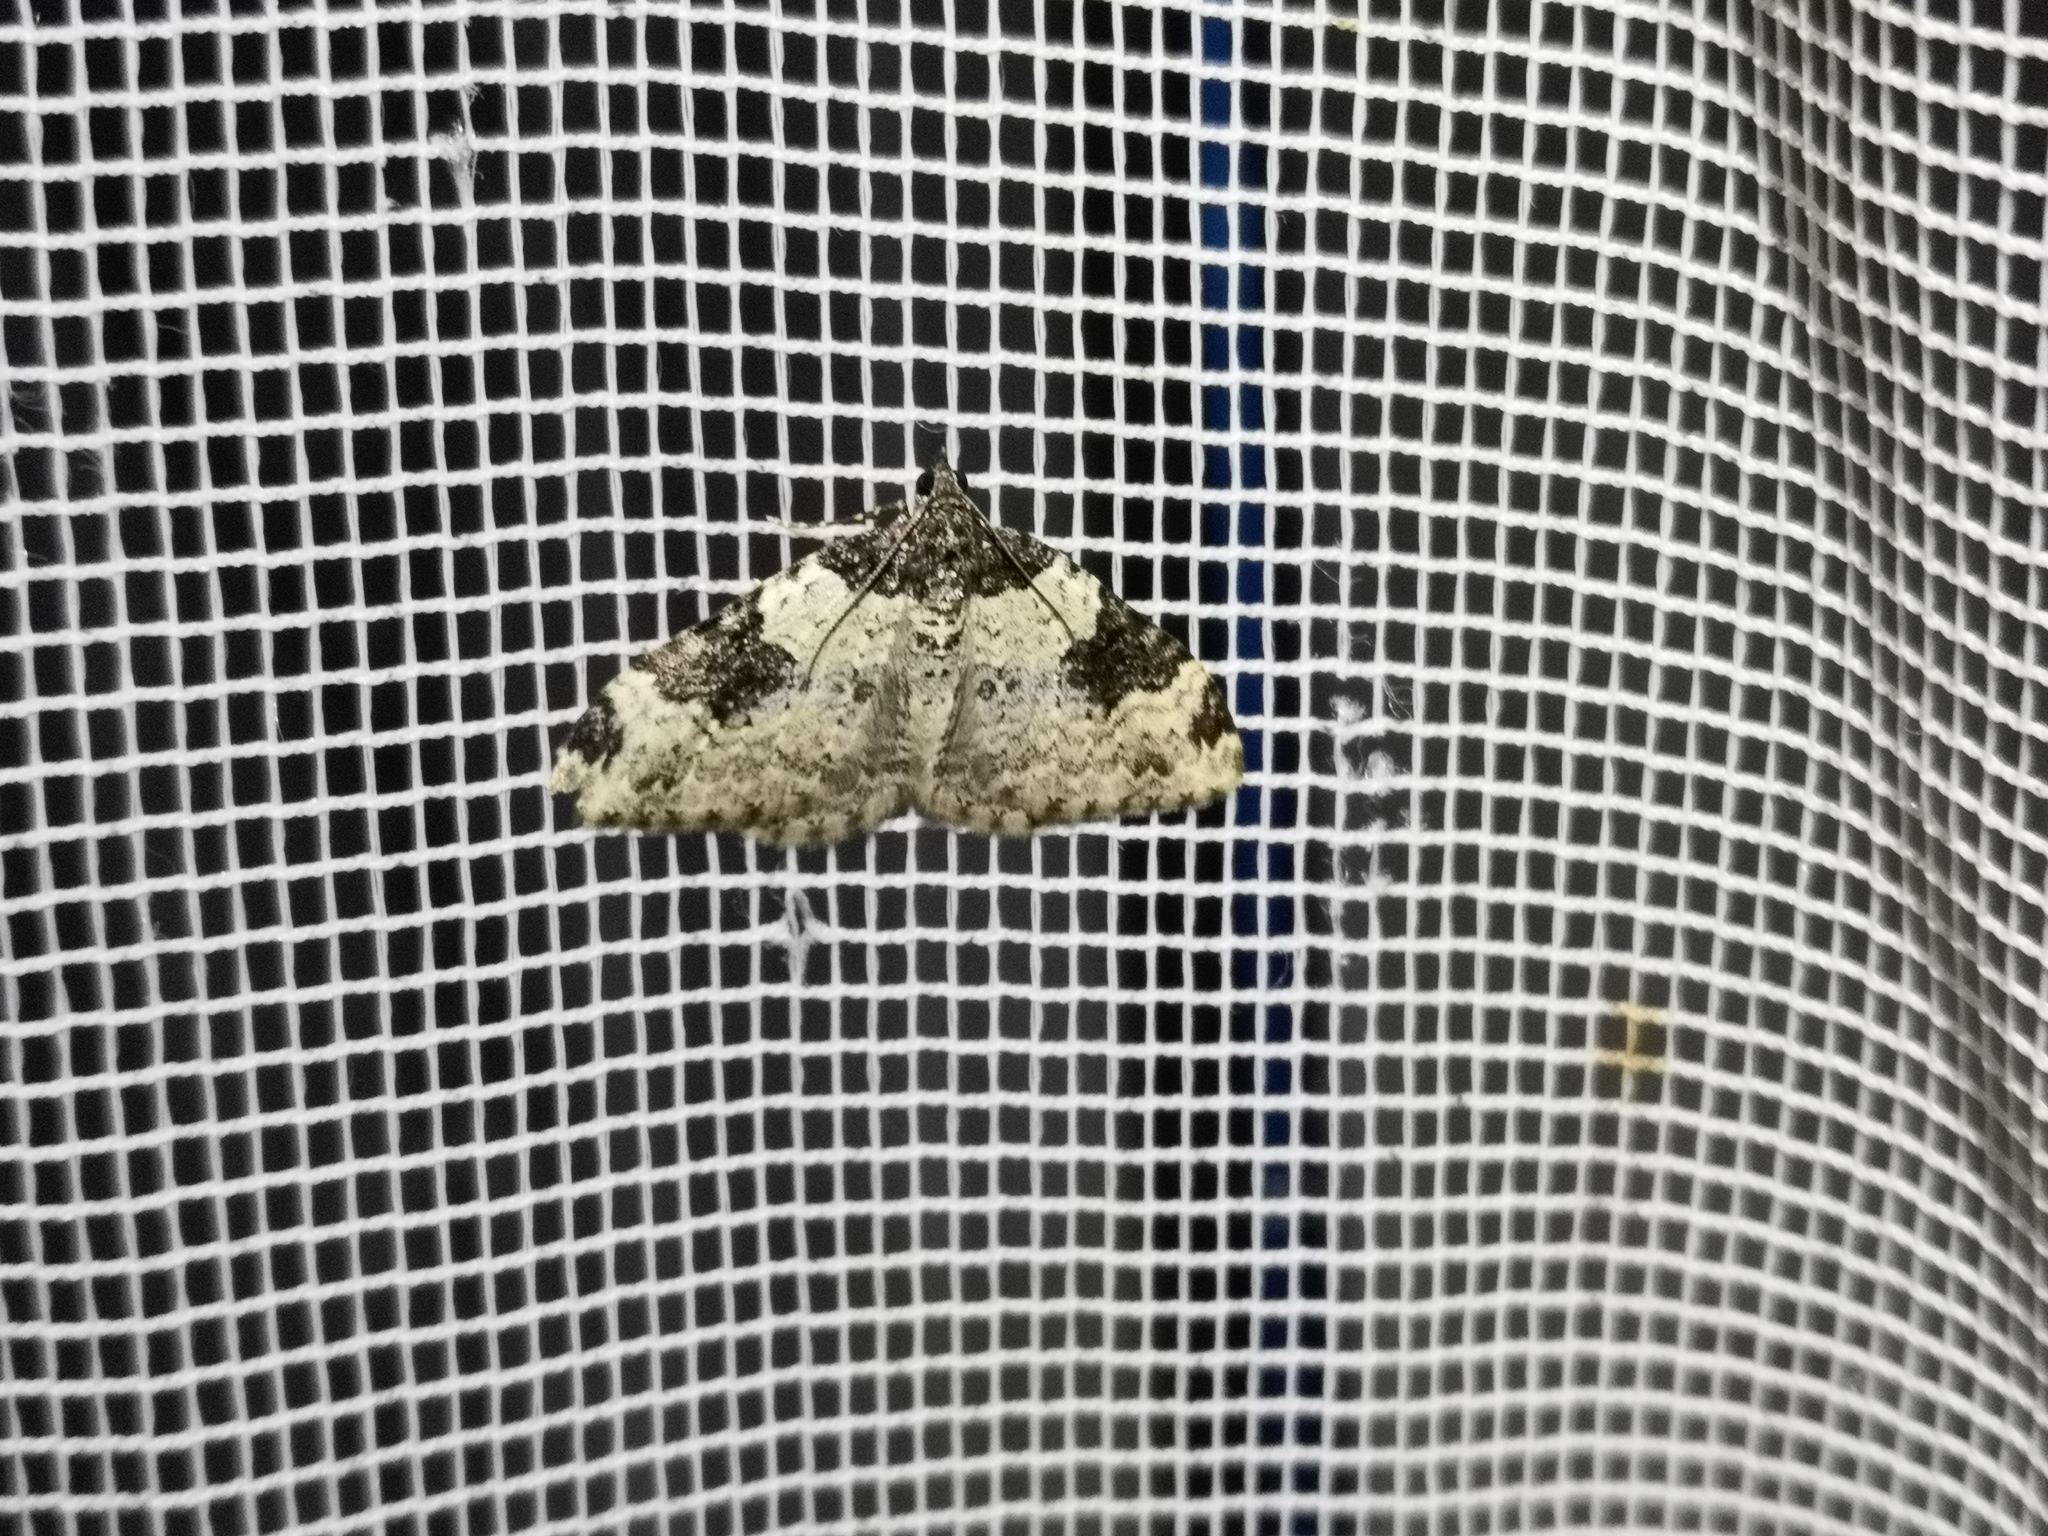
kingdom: Animalia
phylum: Arthropoda
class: Insecta
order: Lepidoptera
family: Geometridae
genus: Xanthorhoe
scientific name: Xanthorhoe fluctuata
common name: Garden carpet
